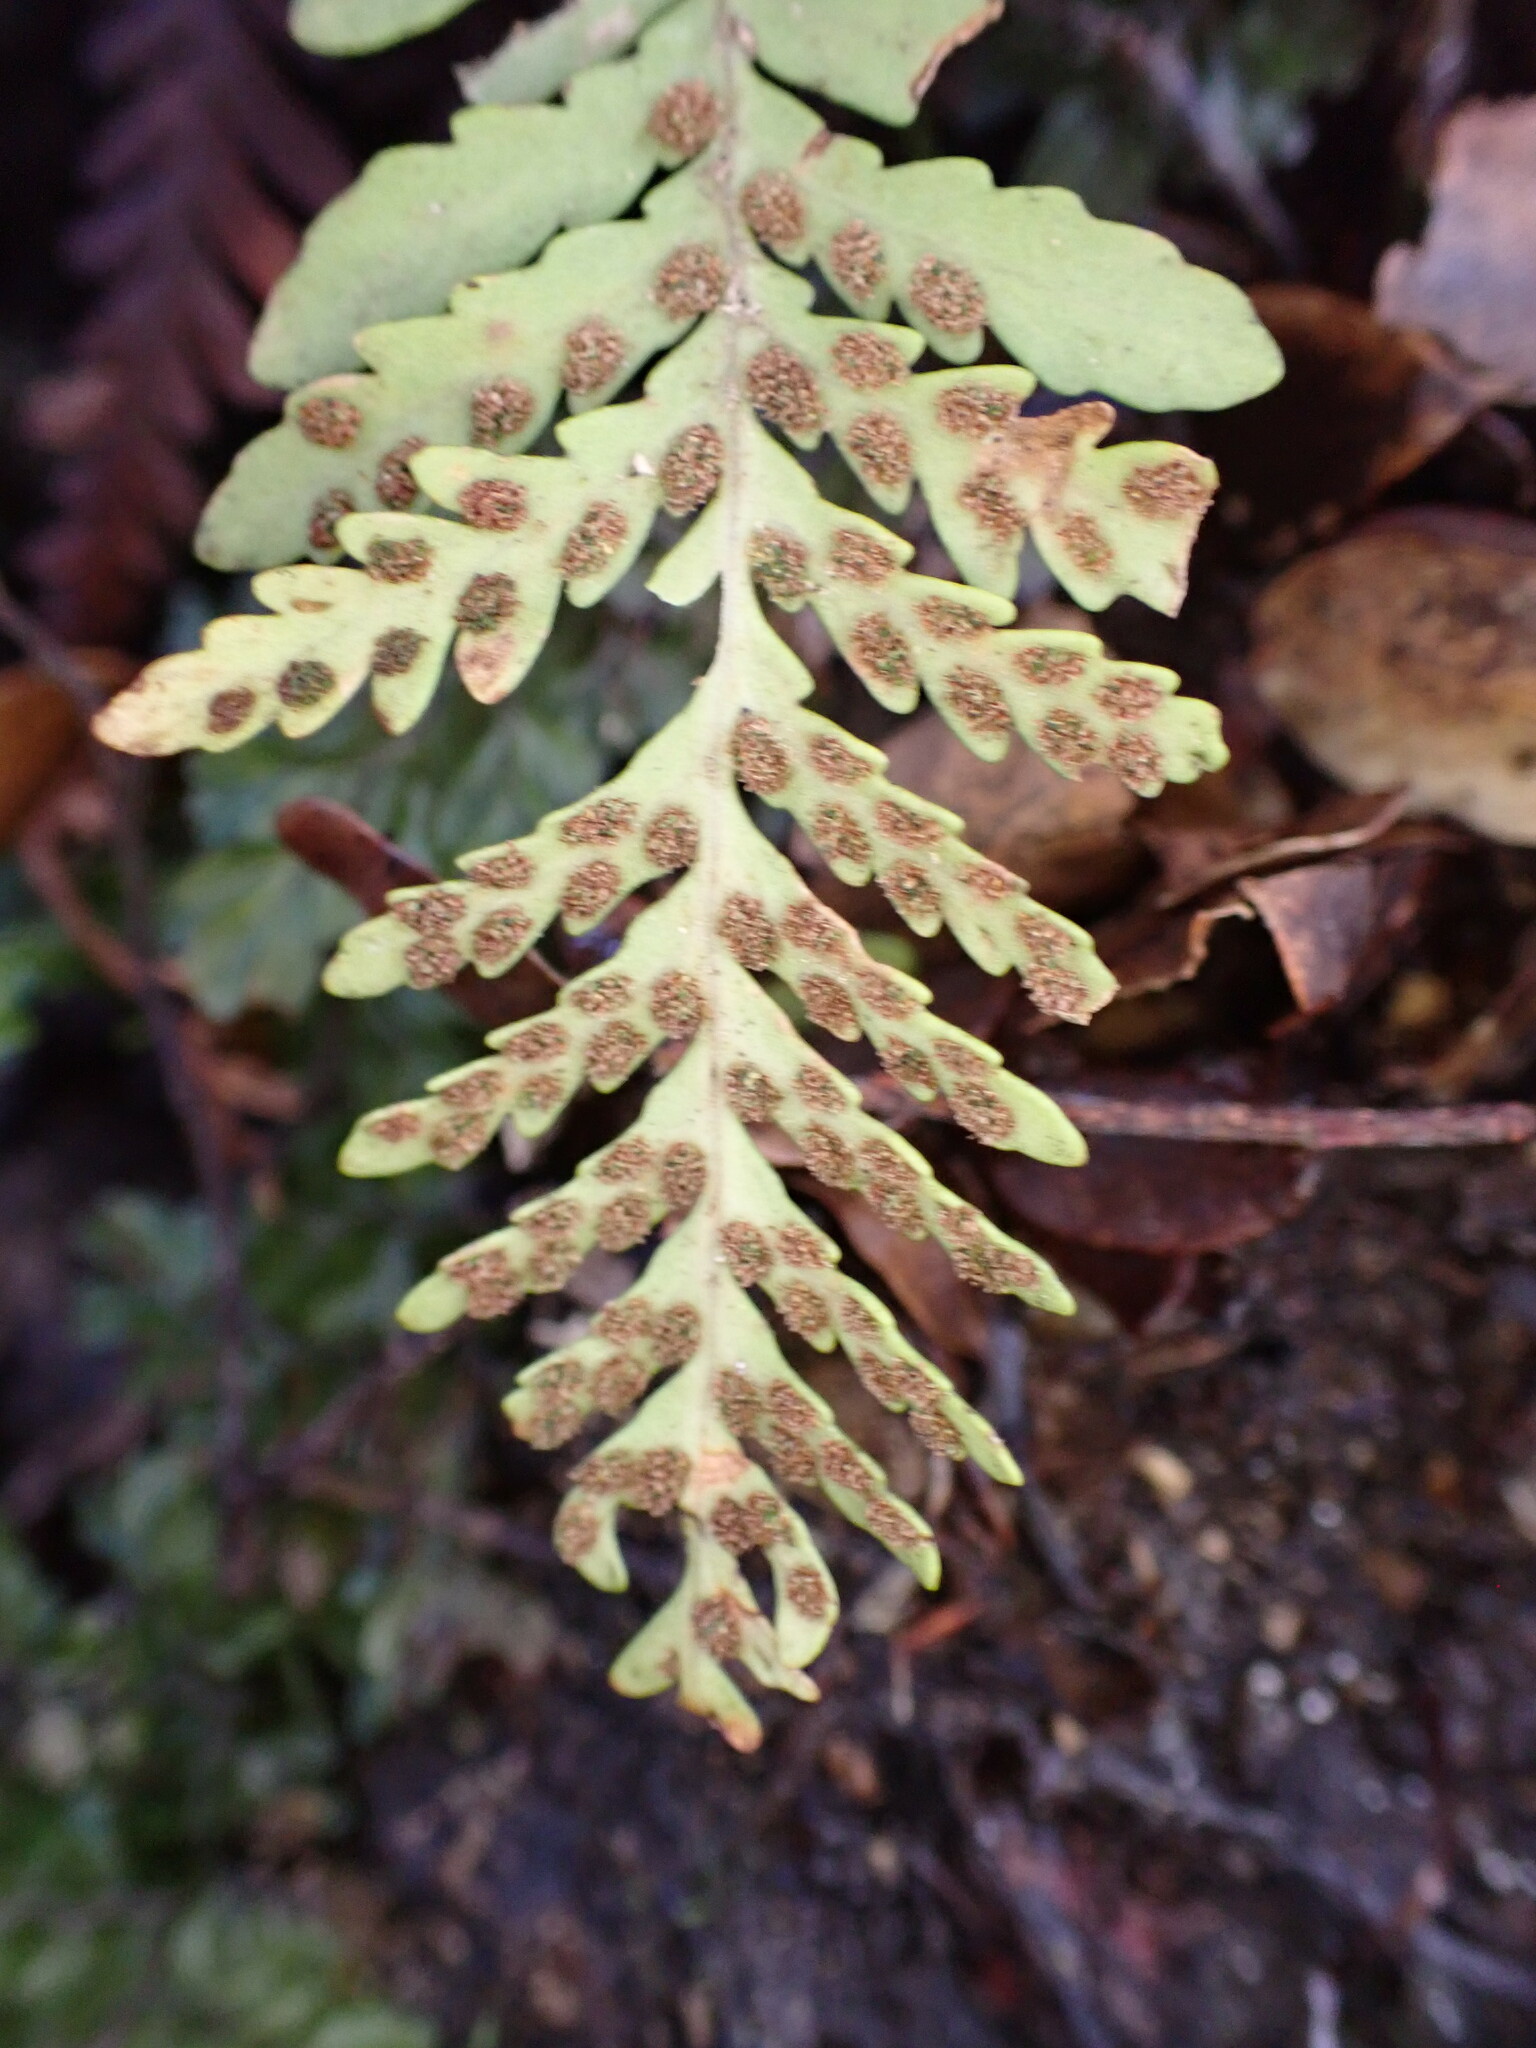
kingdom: Plantae
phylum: Tracheophyta
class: Polypodiopsida
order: Polypodiales
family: Polypodiaceae
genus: Notogrammitis
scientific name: Notogrammitis heterophylla
